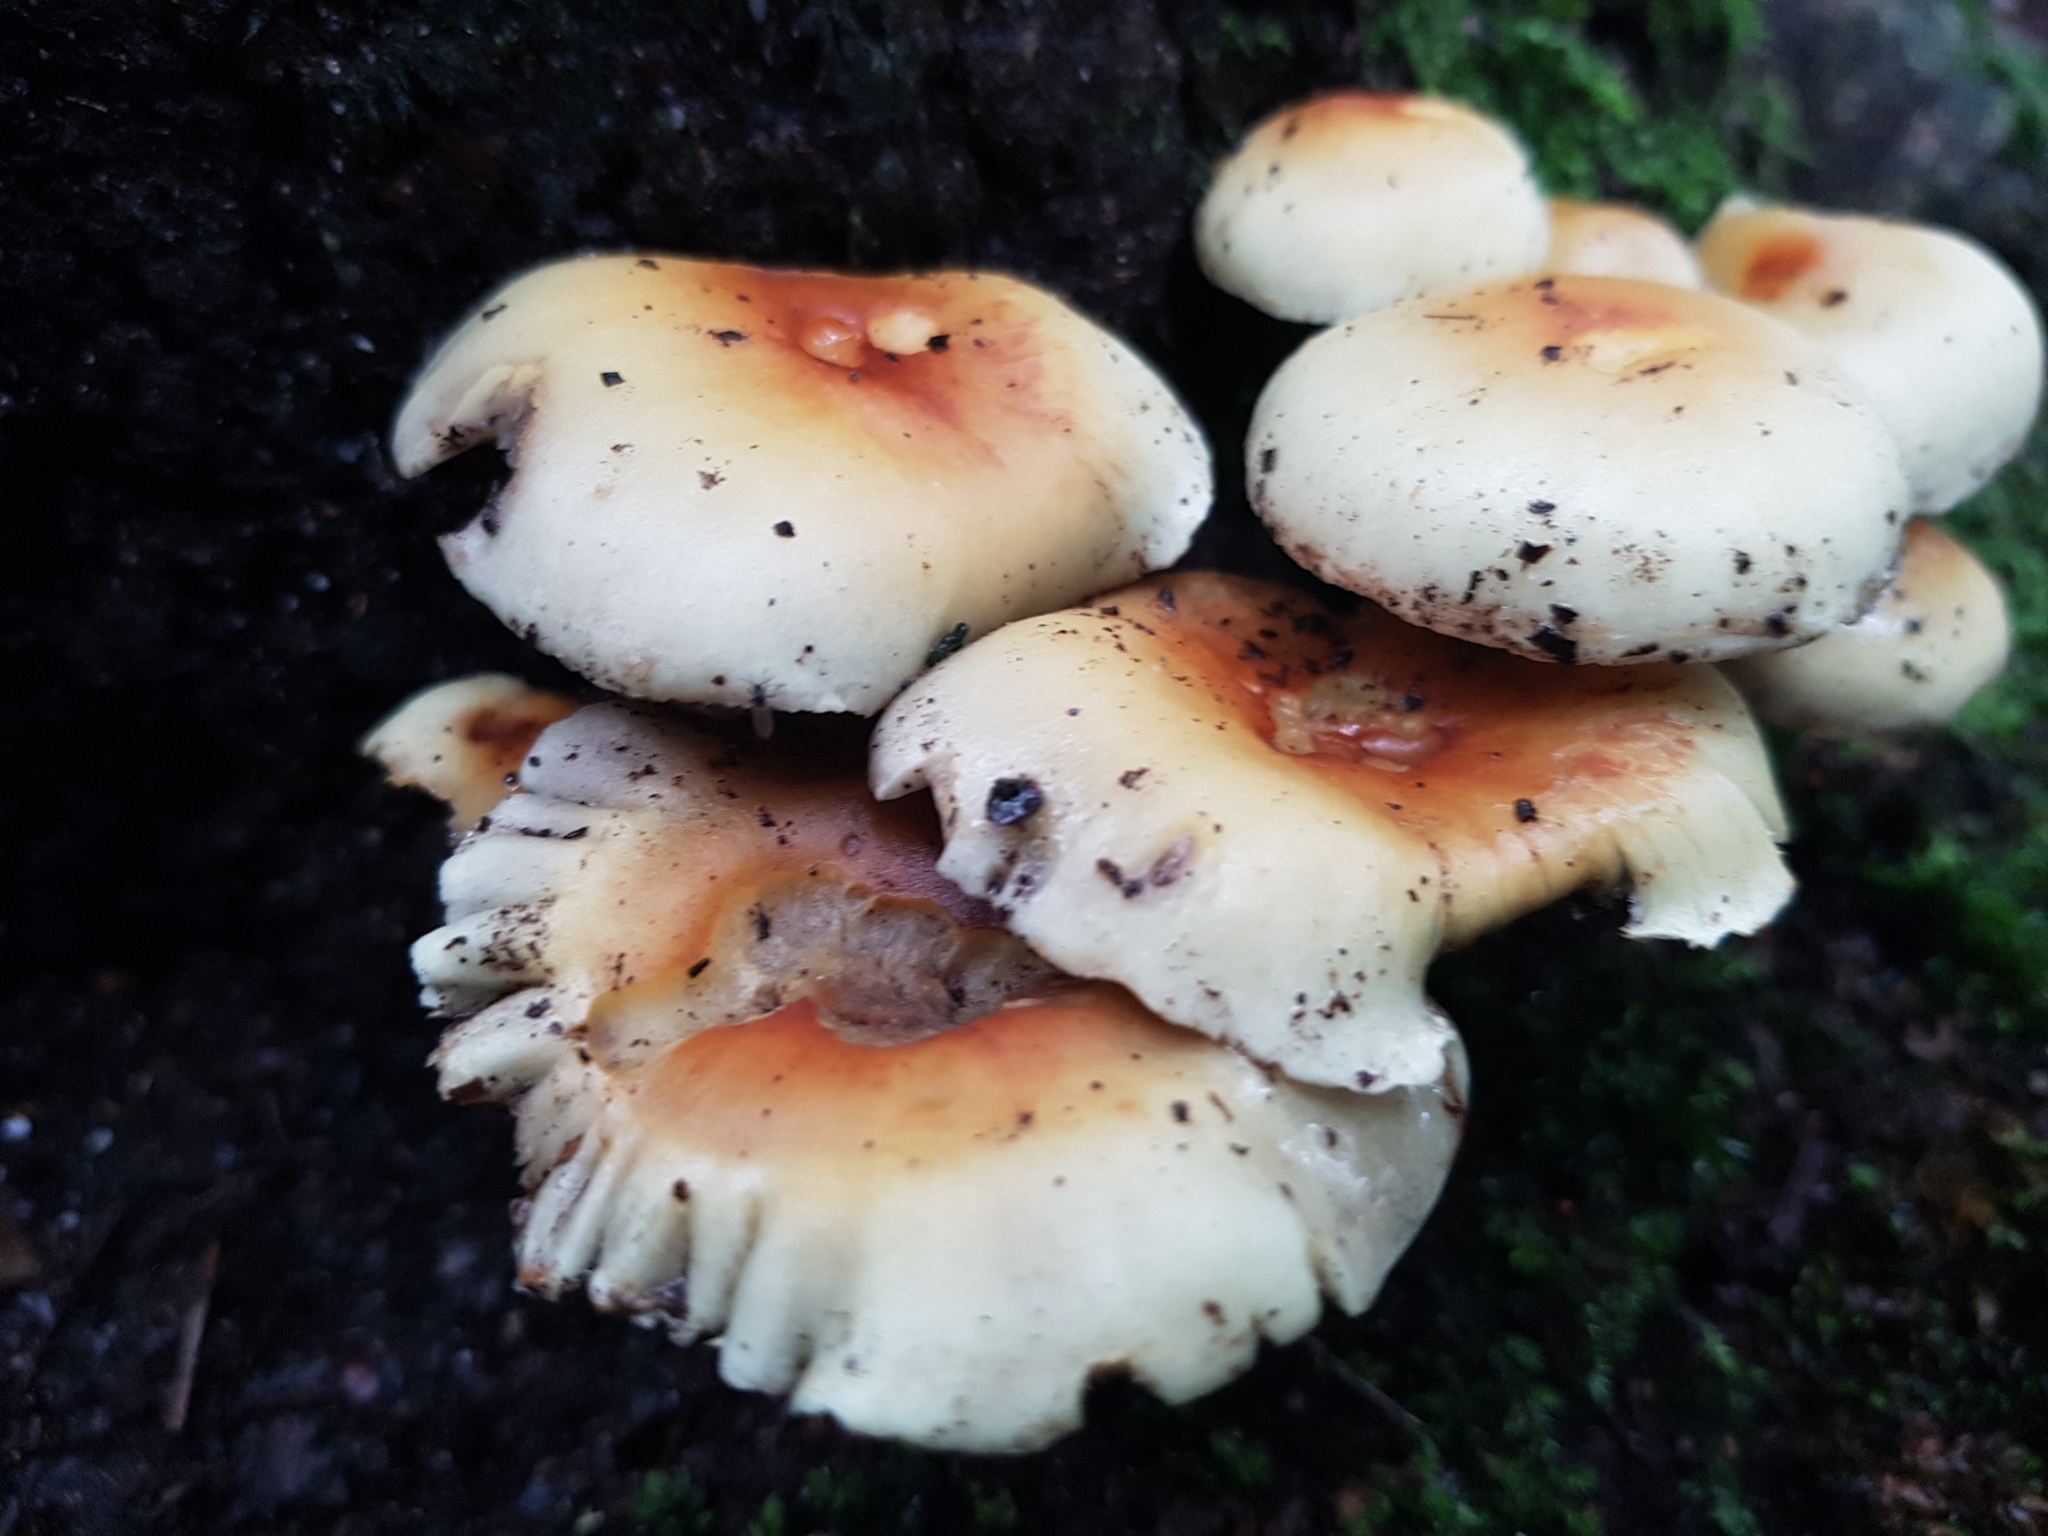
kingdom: Fungi
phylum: Basidiomycota
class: Agaricomycetes
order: Agaricales
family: Strophariaceae
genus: Hypholoma
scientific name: Hypholoma lateritium
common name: Brick caps
